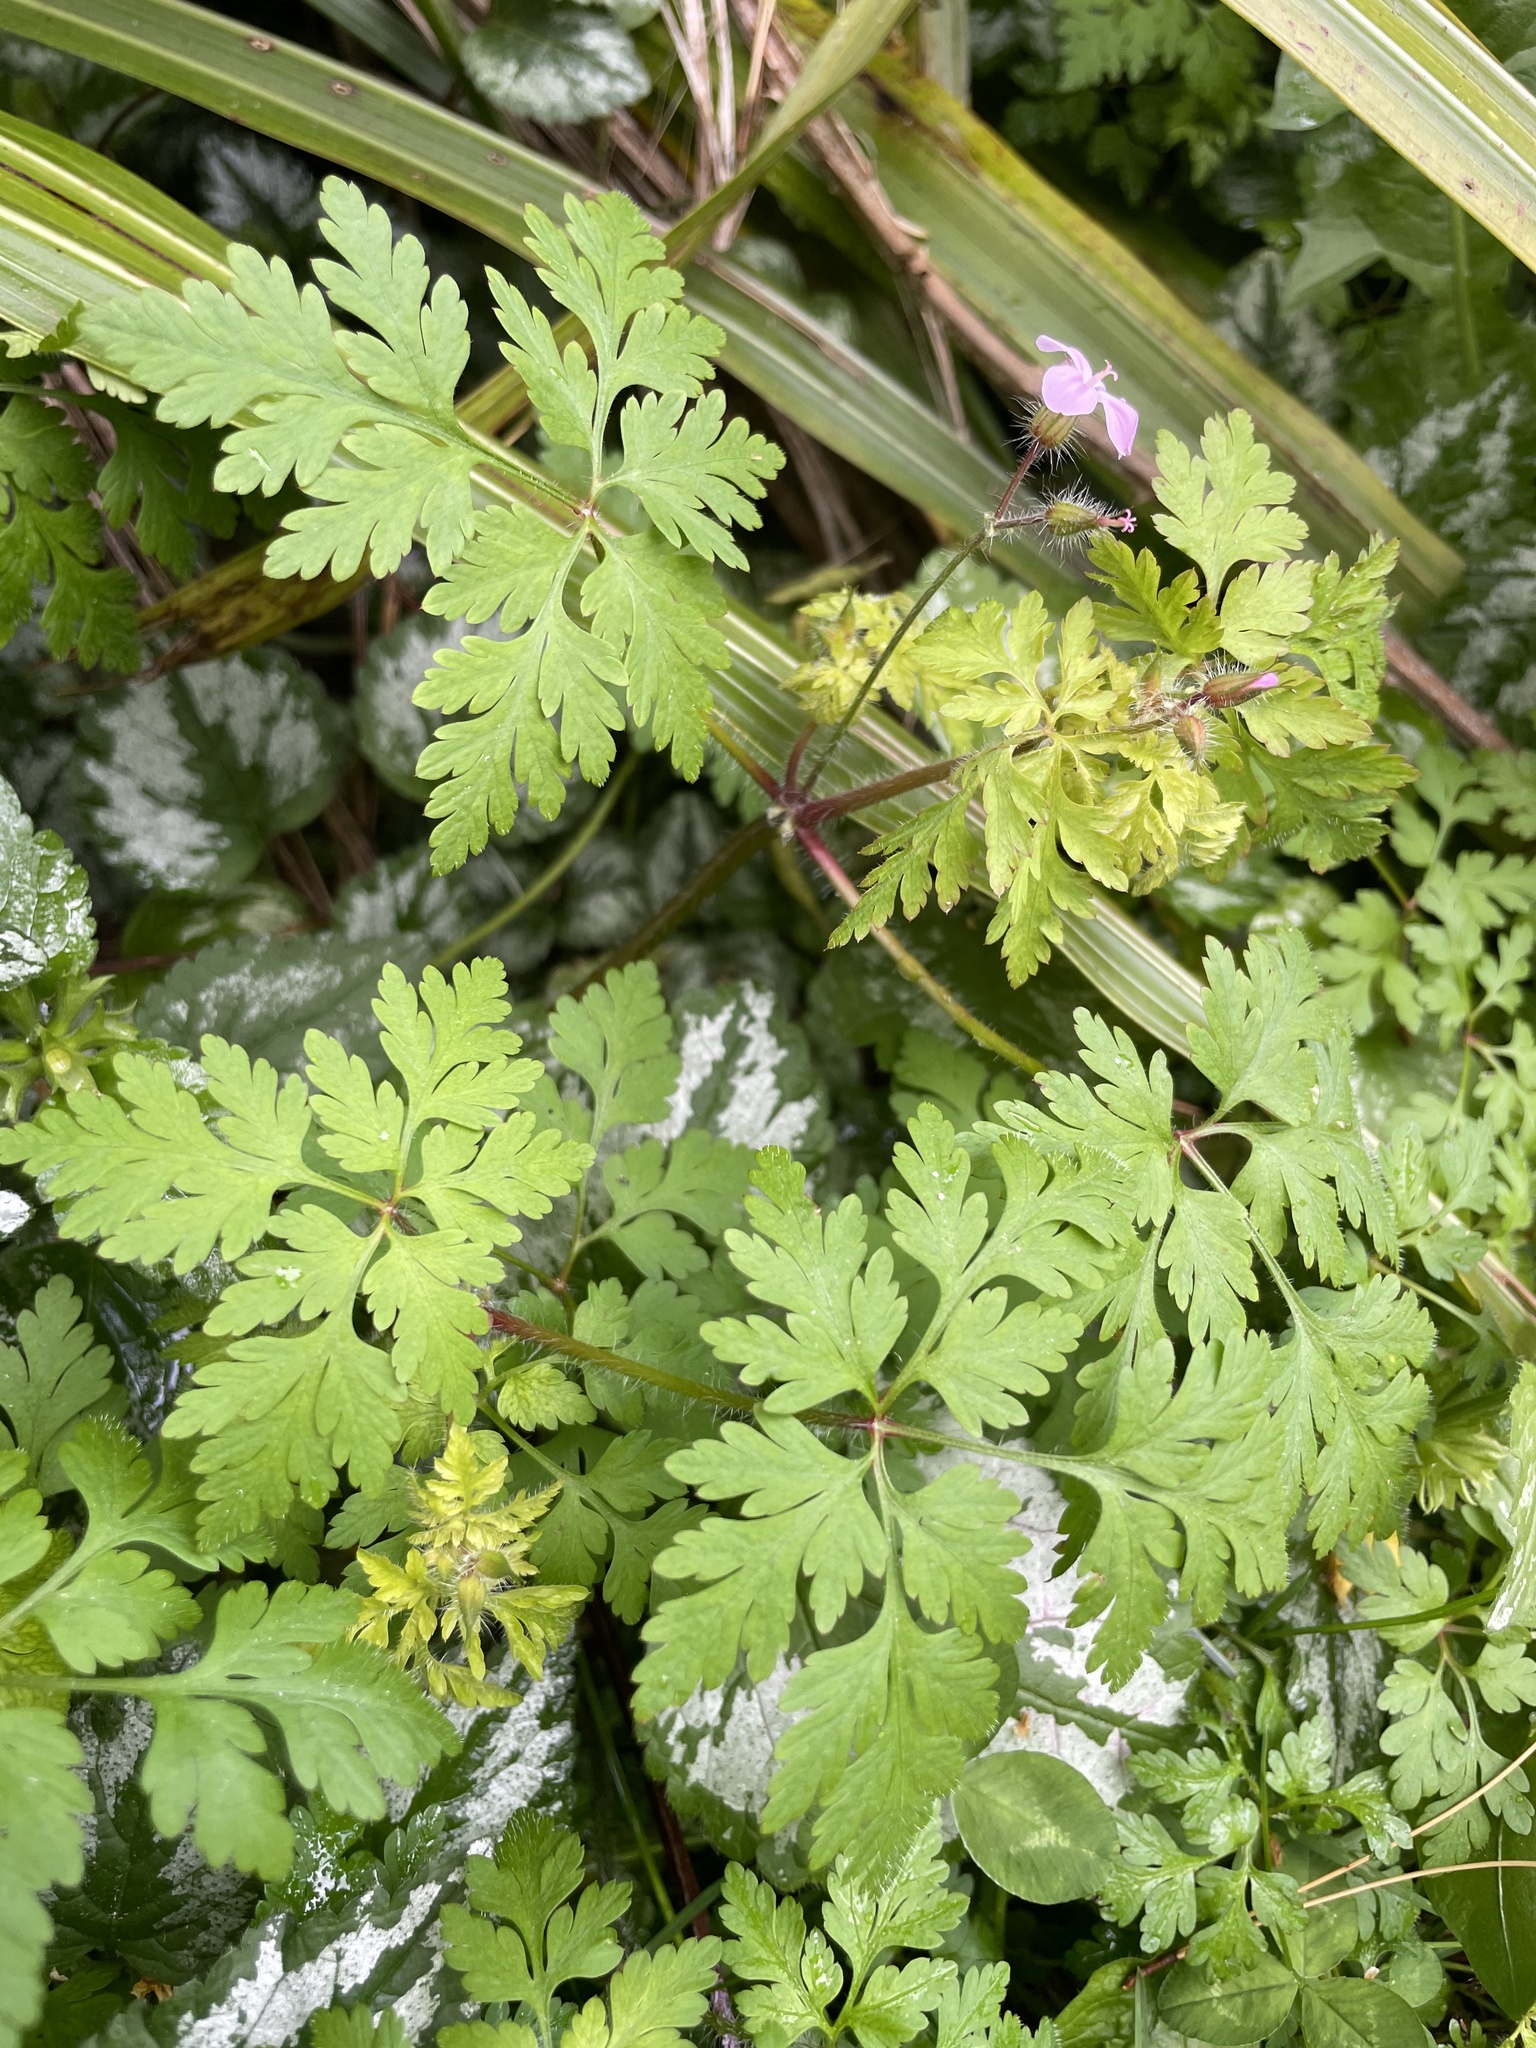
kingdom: Plantae
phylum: Tracheophyta
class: Magnoliopsida
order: Geraniales
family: Geraniaceae
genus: Geranium
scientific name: Geranium robertianum
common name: Herb-robert
